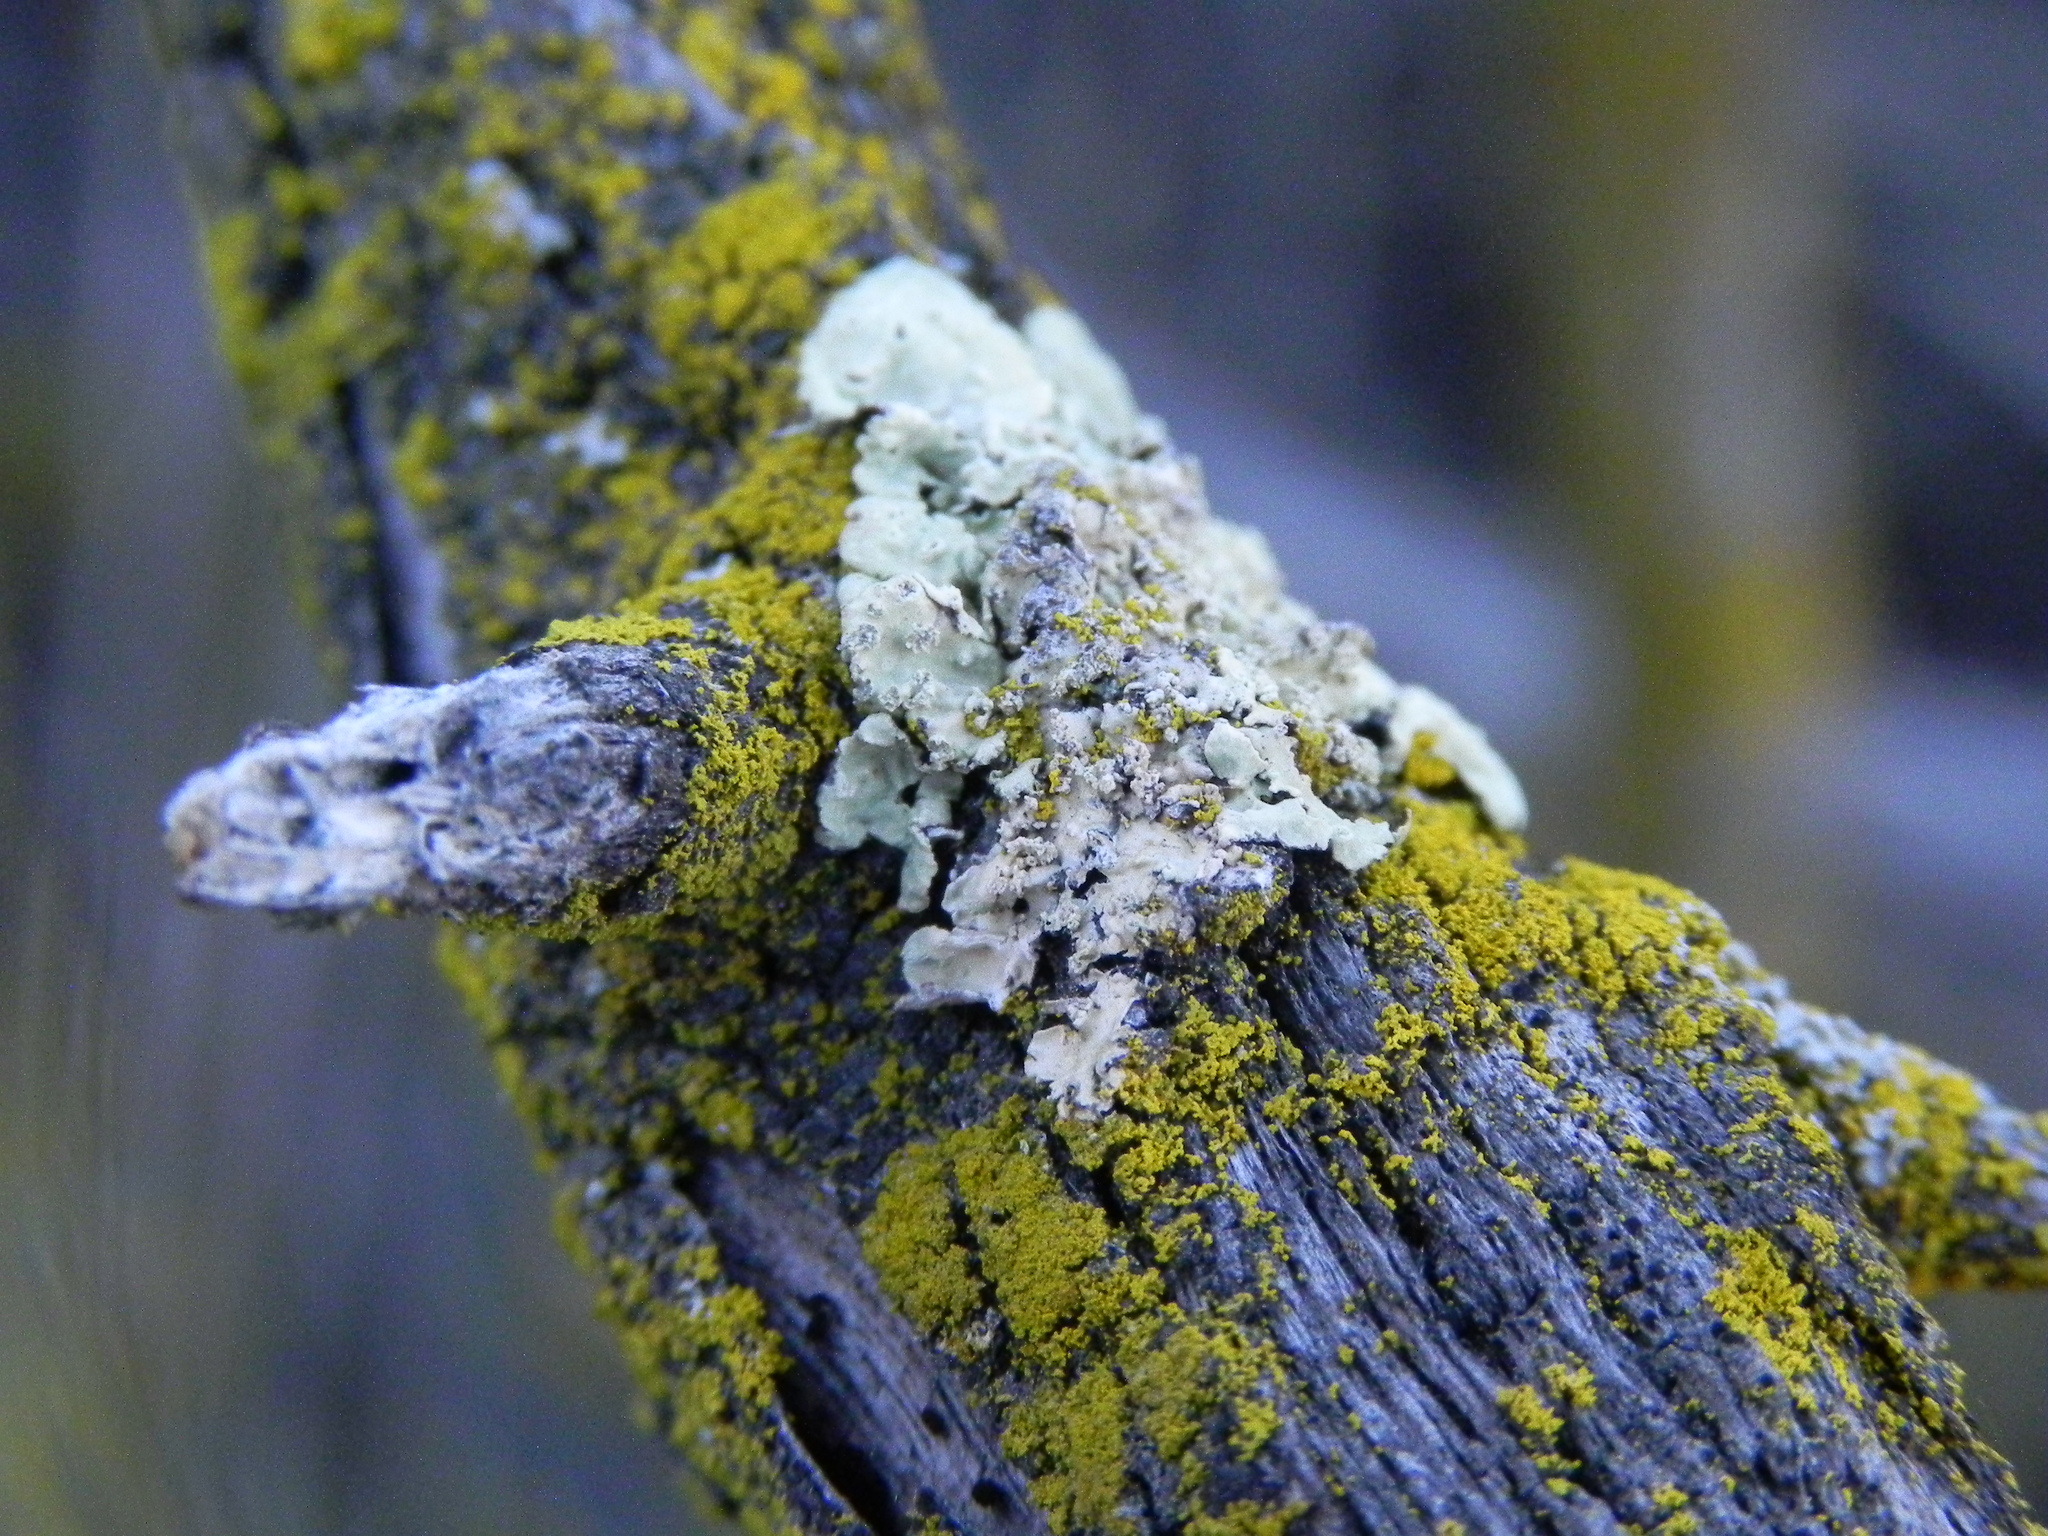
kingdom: Fungi
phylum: Ascomycota
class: Candelariomycetes
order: Candelariales
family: Candelariaceae
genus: Candelaria
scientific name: Candelaria pacifica
